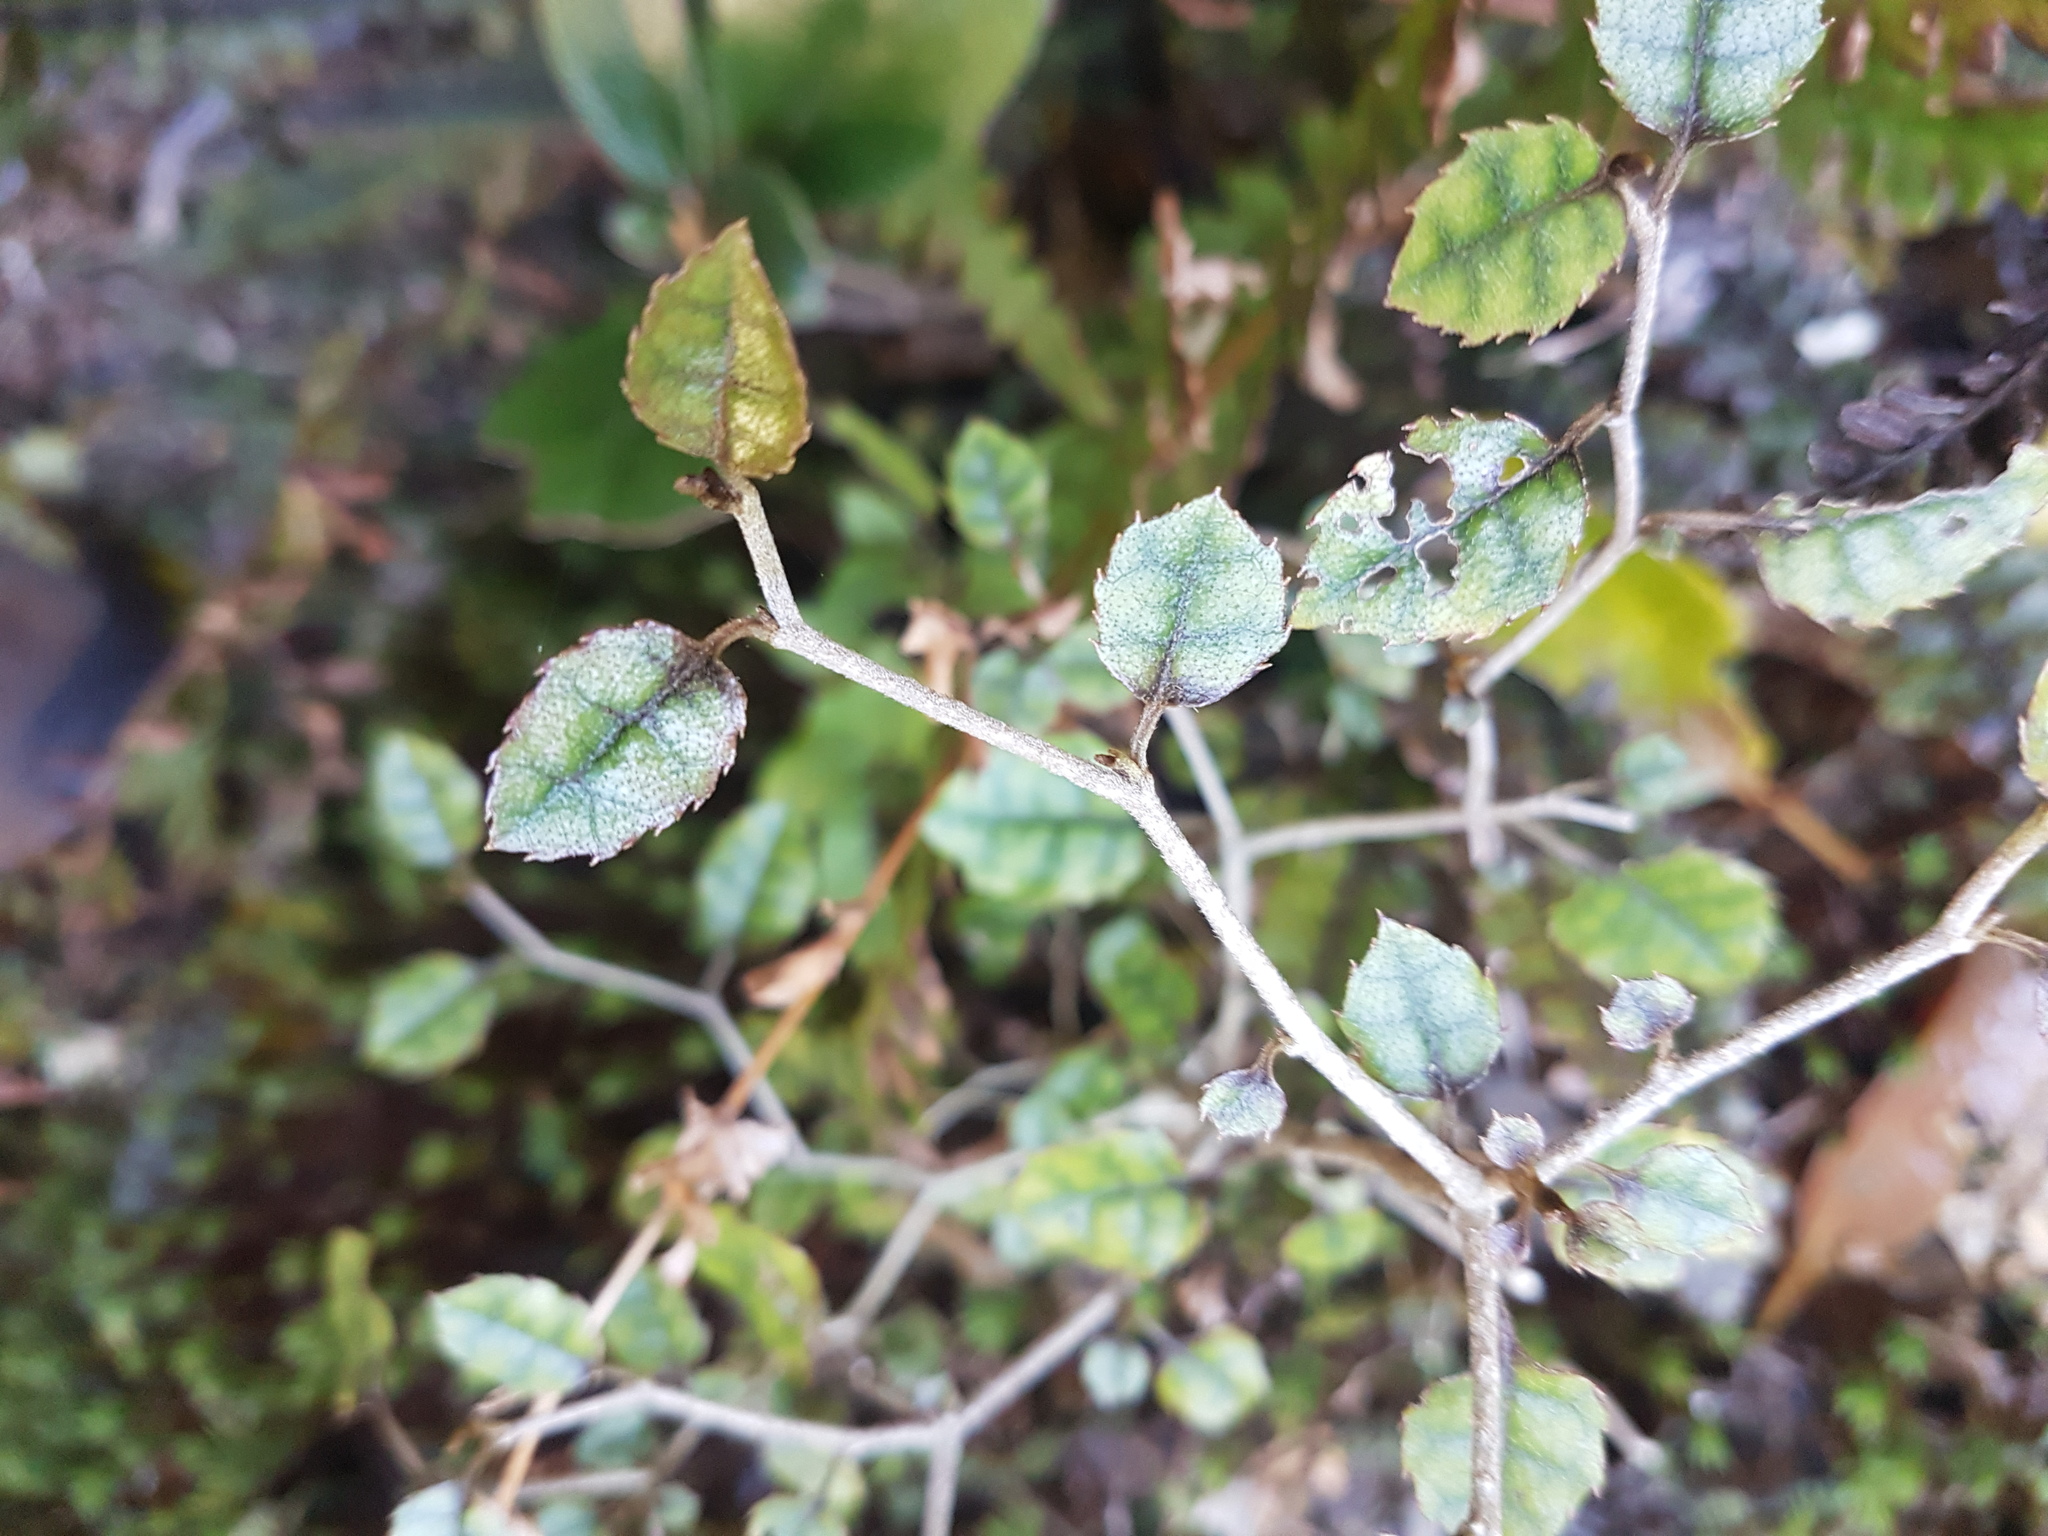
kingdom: Plantae
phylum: Tracheophyta
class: Magnoliopsida
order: Asterales
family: Rousseaceae
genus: Carpodetus
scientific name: Carpodetus serratus
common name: White mapau
